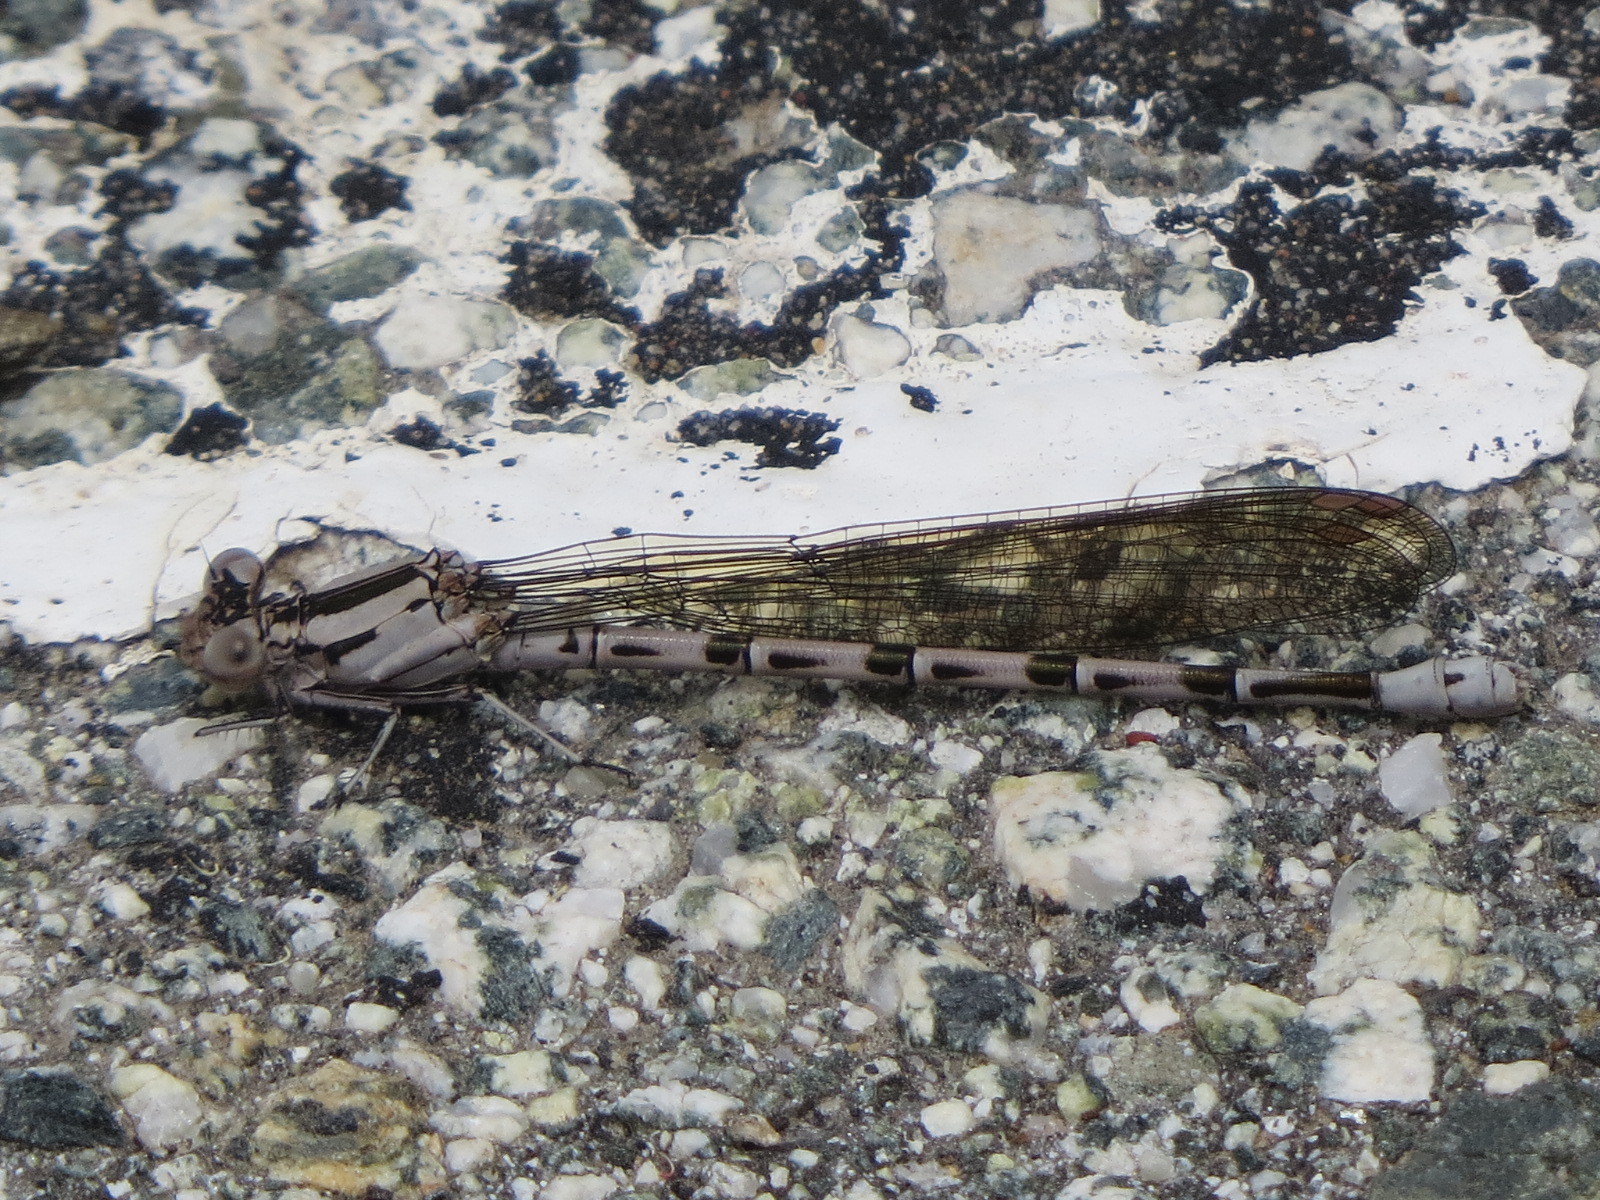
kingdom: Animalia
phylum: Arthropoda
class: Insecta
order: Odonata
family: Coenagrionidae
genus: Argia
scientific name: Argia vivida
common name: Vivid dancer
